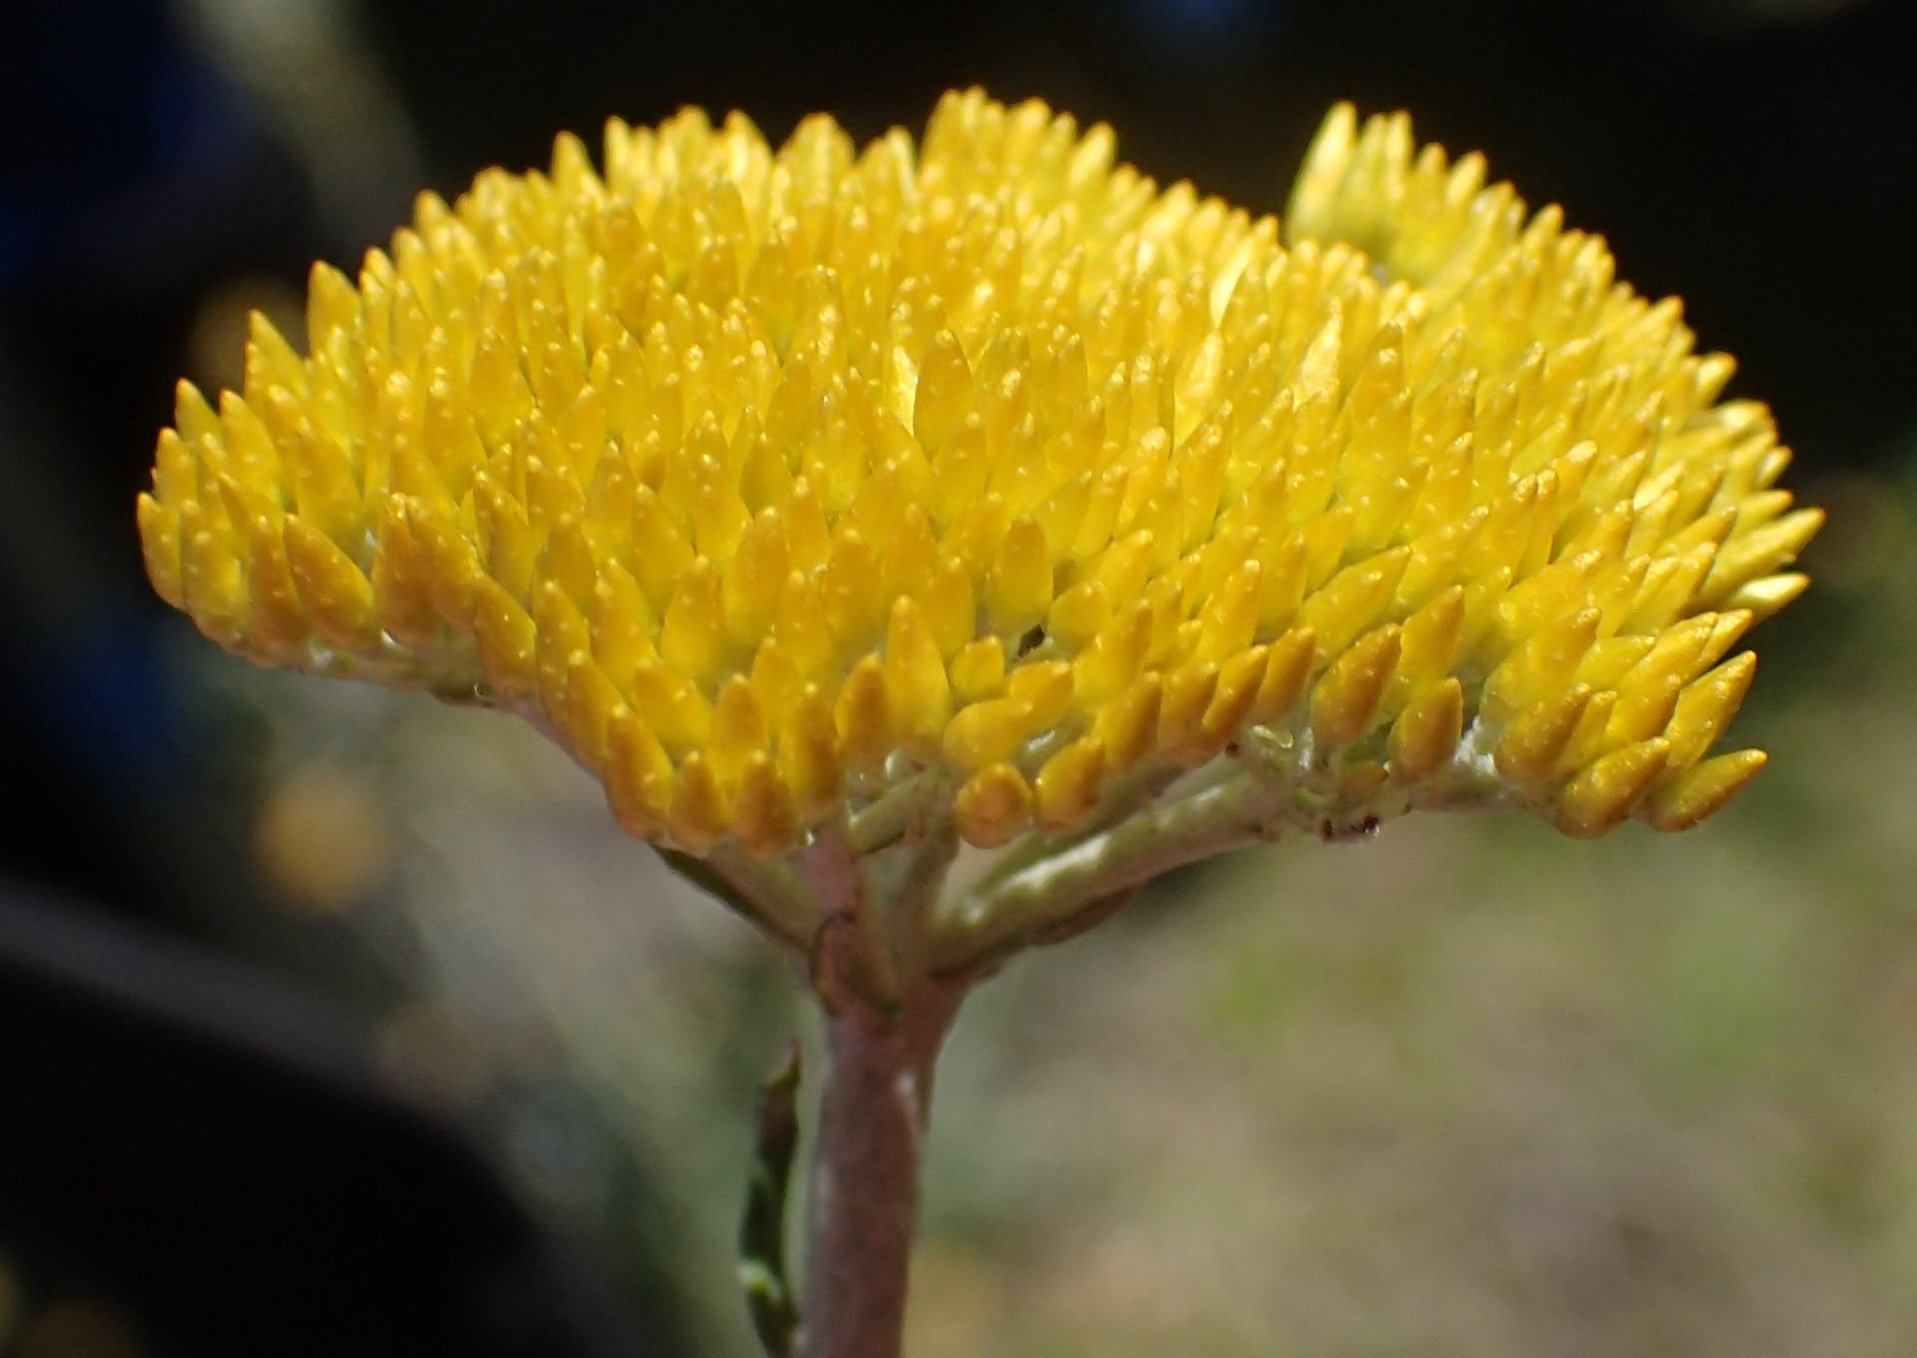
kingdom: Plantae
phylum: Tracheophyta
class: Magnoliopsida
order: Asterales
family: Asteraceae
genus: Helichrysum
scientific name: Helichrysum cymosum
